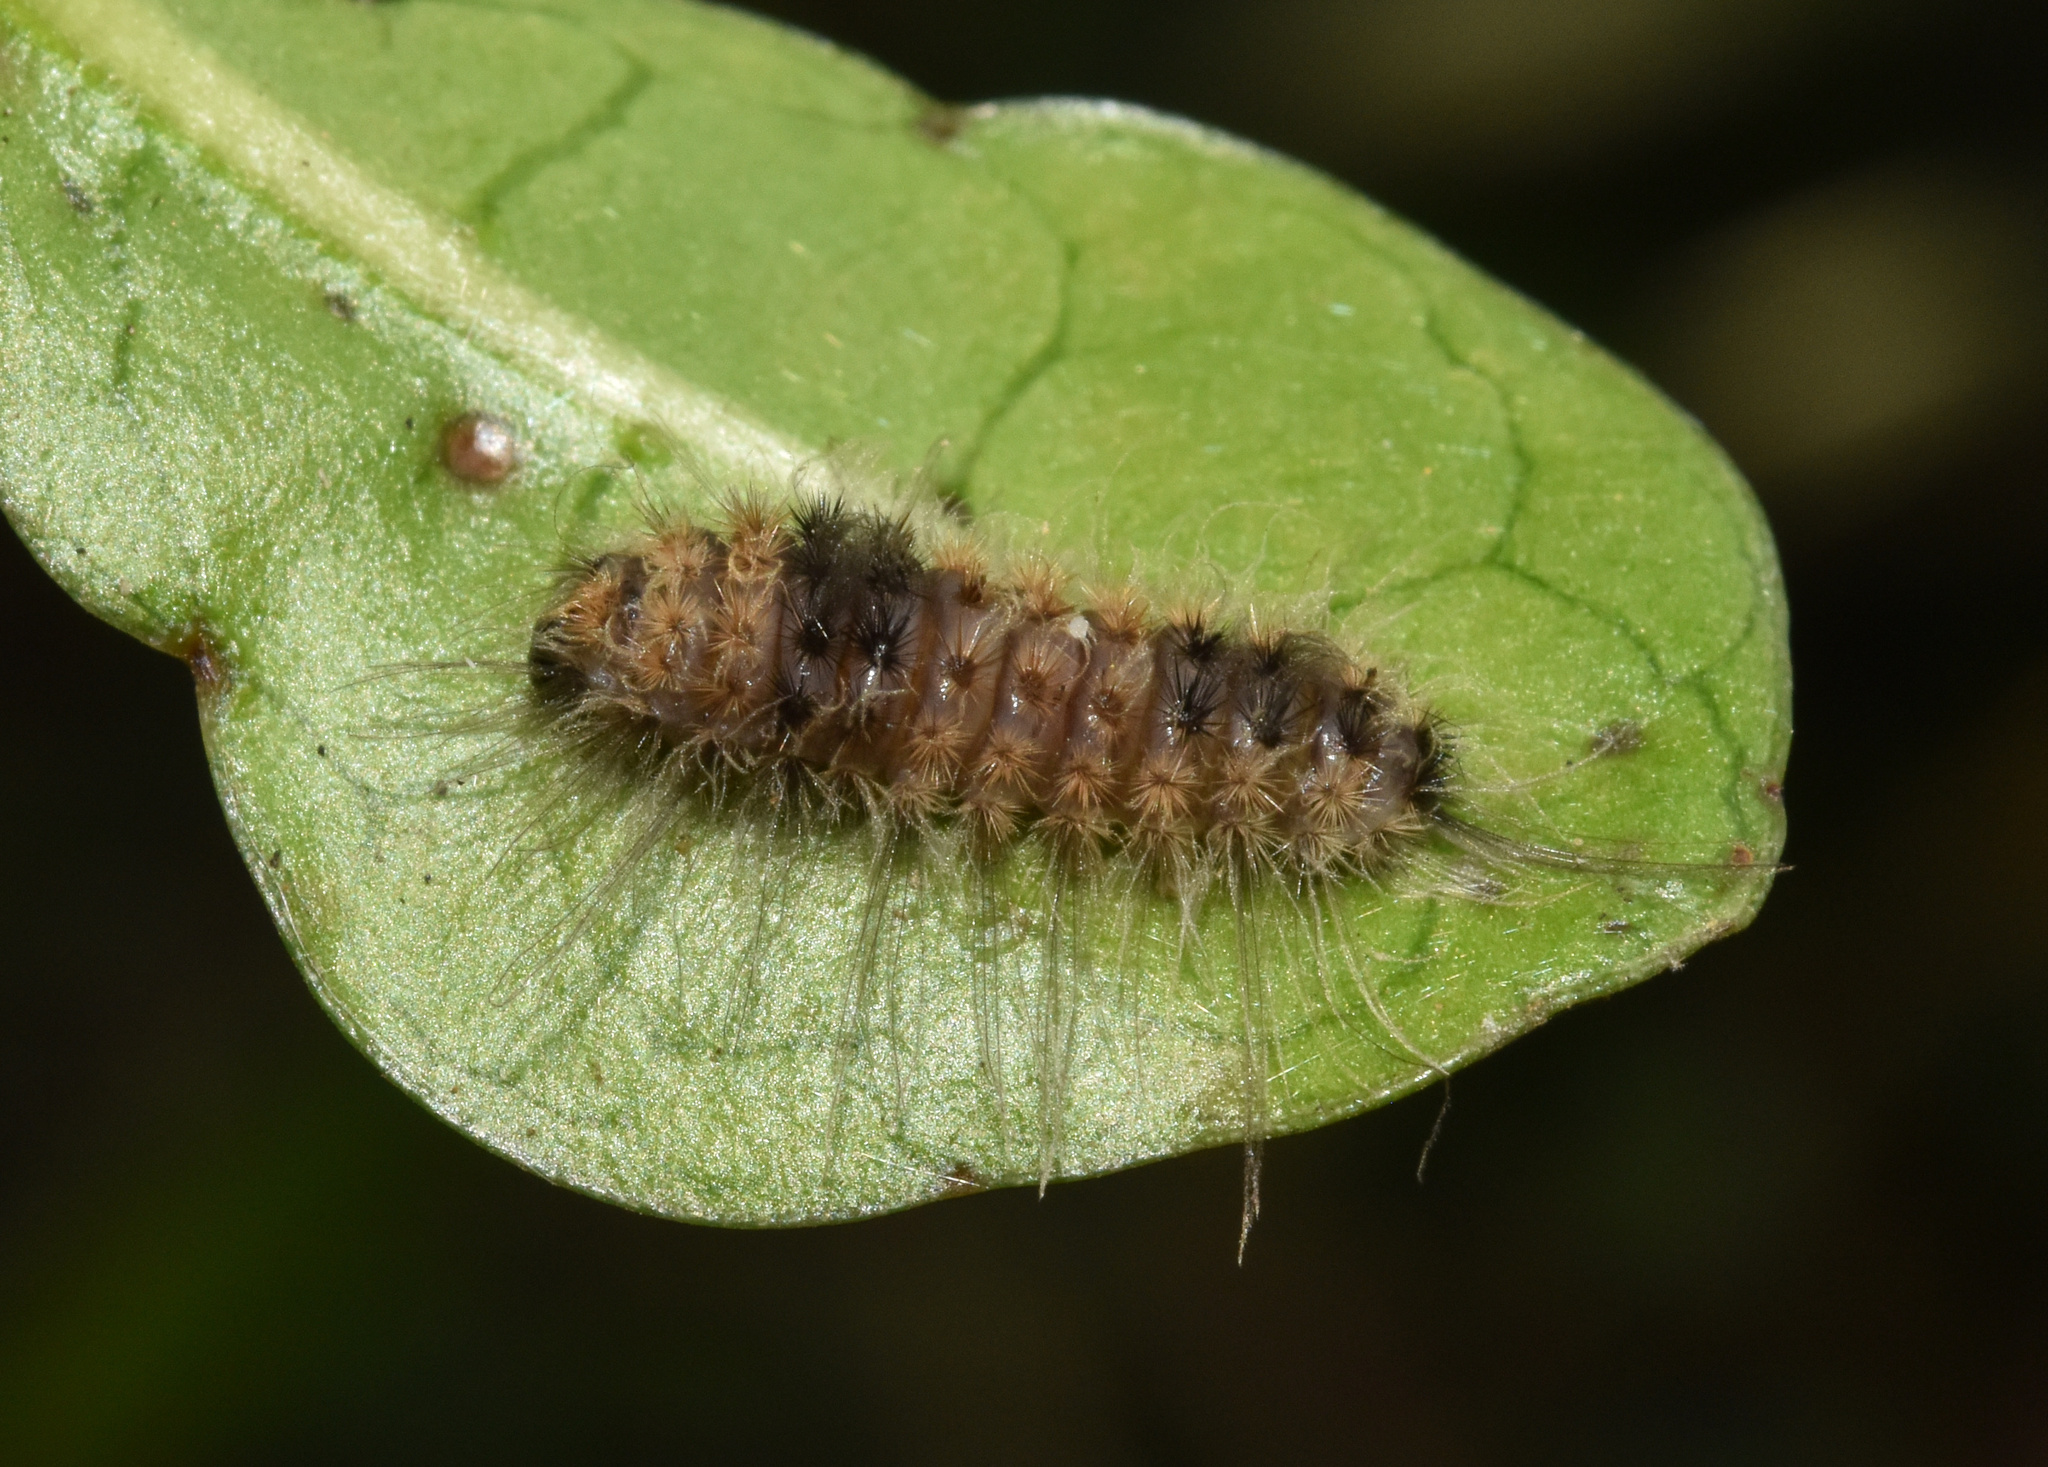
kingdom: Animalia
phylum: Arthropoda
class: Insecta
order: Lepidoptera
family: Erebidae
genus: Tumicla
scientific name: Tumicla sagenaria
